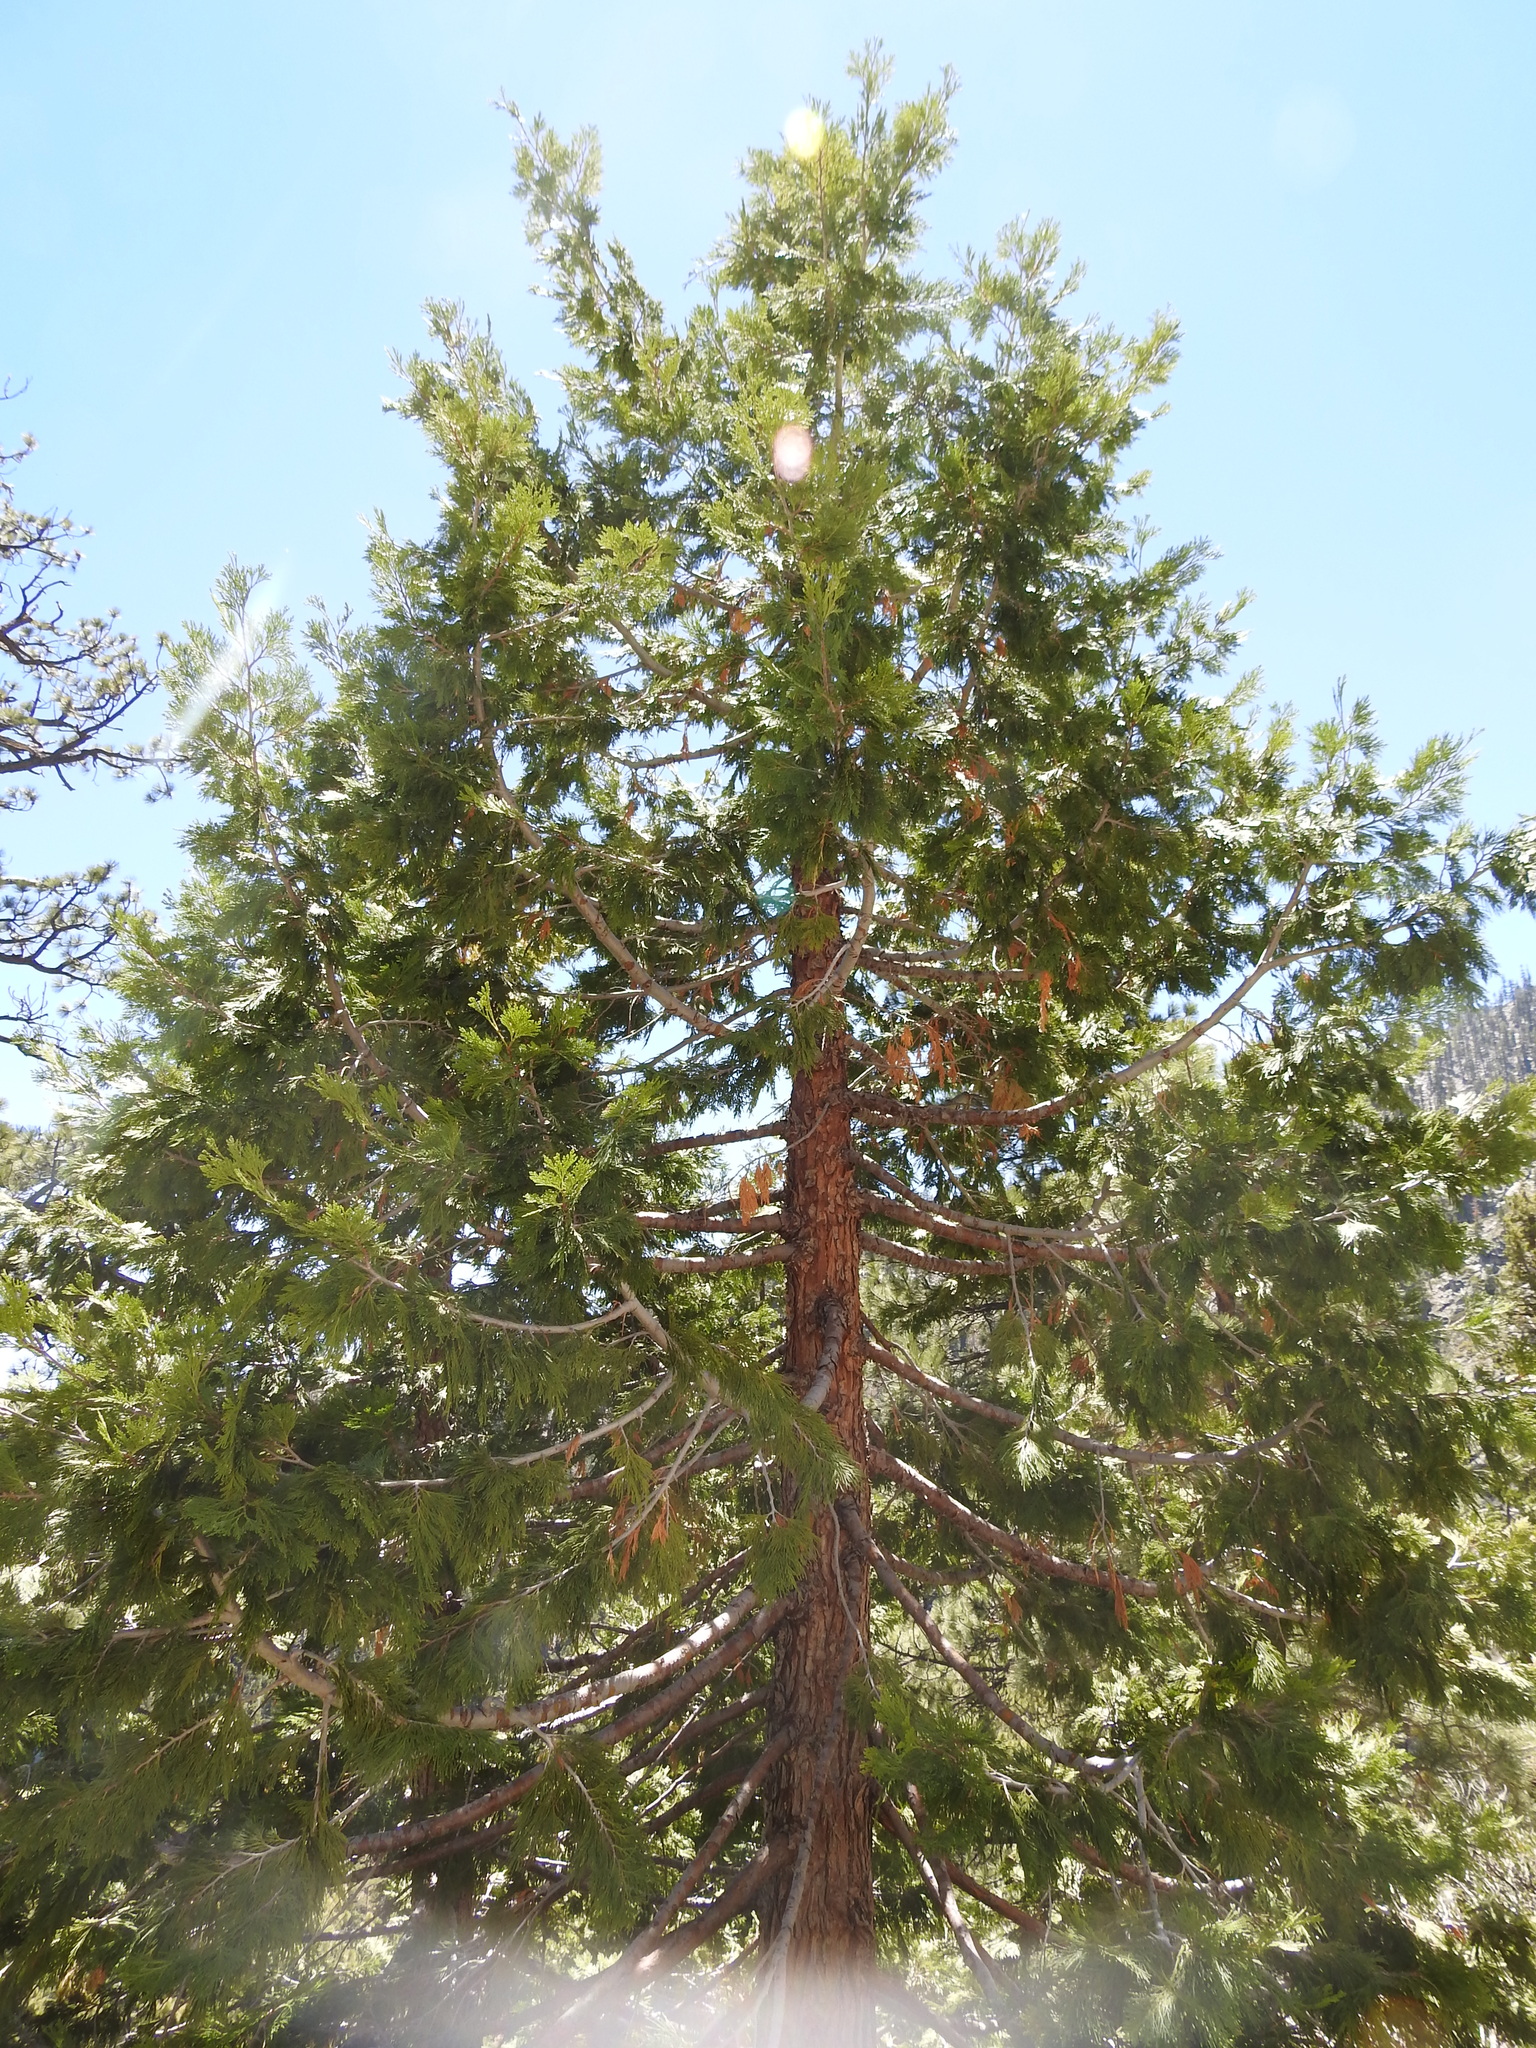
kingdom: Plantae
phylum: Tracheophyta
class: Pinopsida
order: Pinales
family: Cupressaceae
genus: Calocedrus
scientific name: Calocedrus decurrens
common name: Californian incense-cedar
